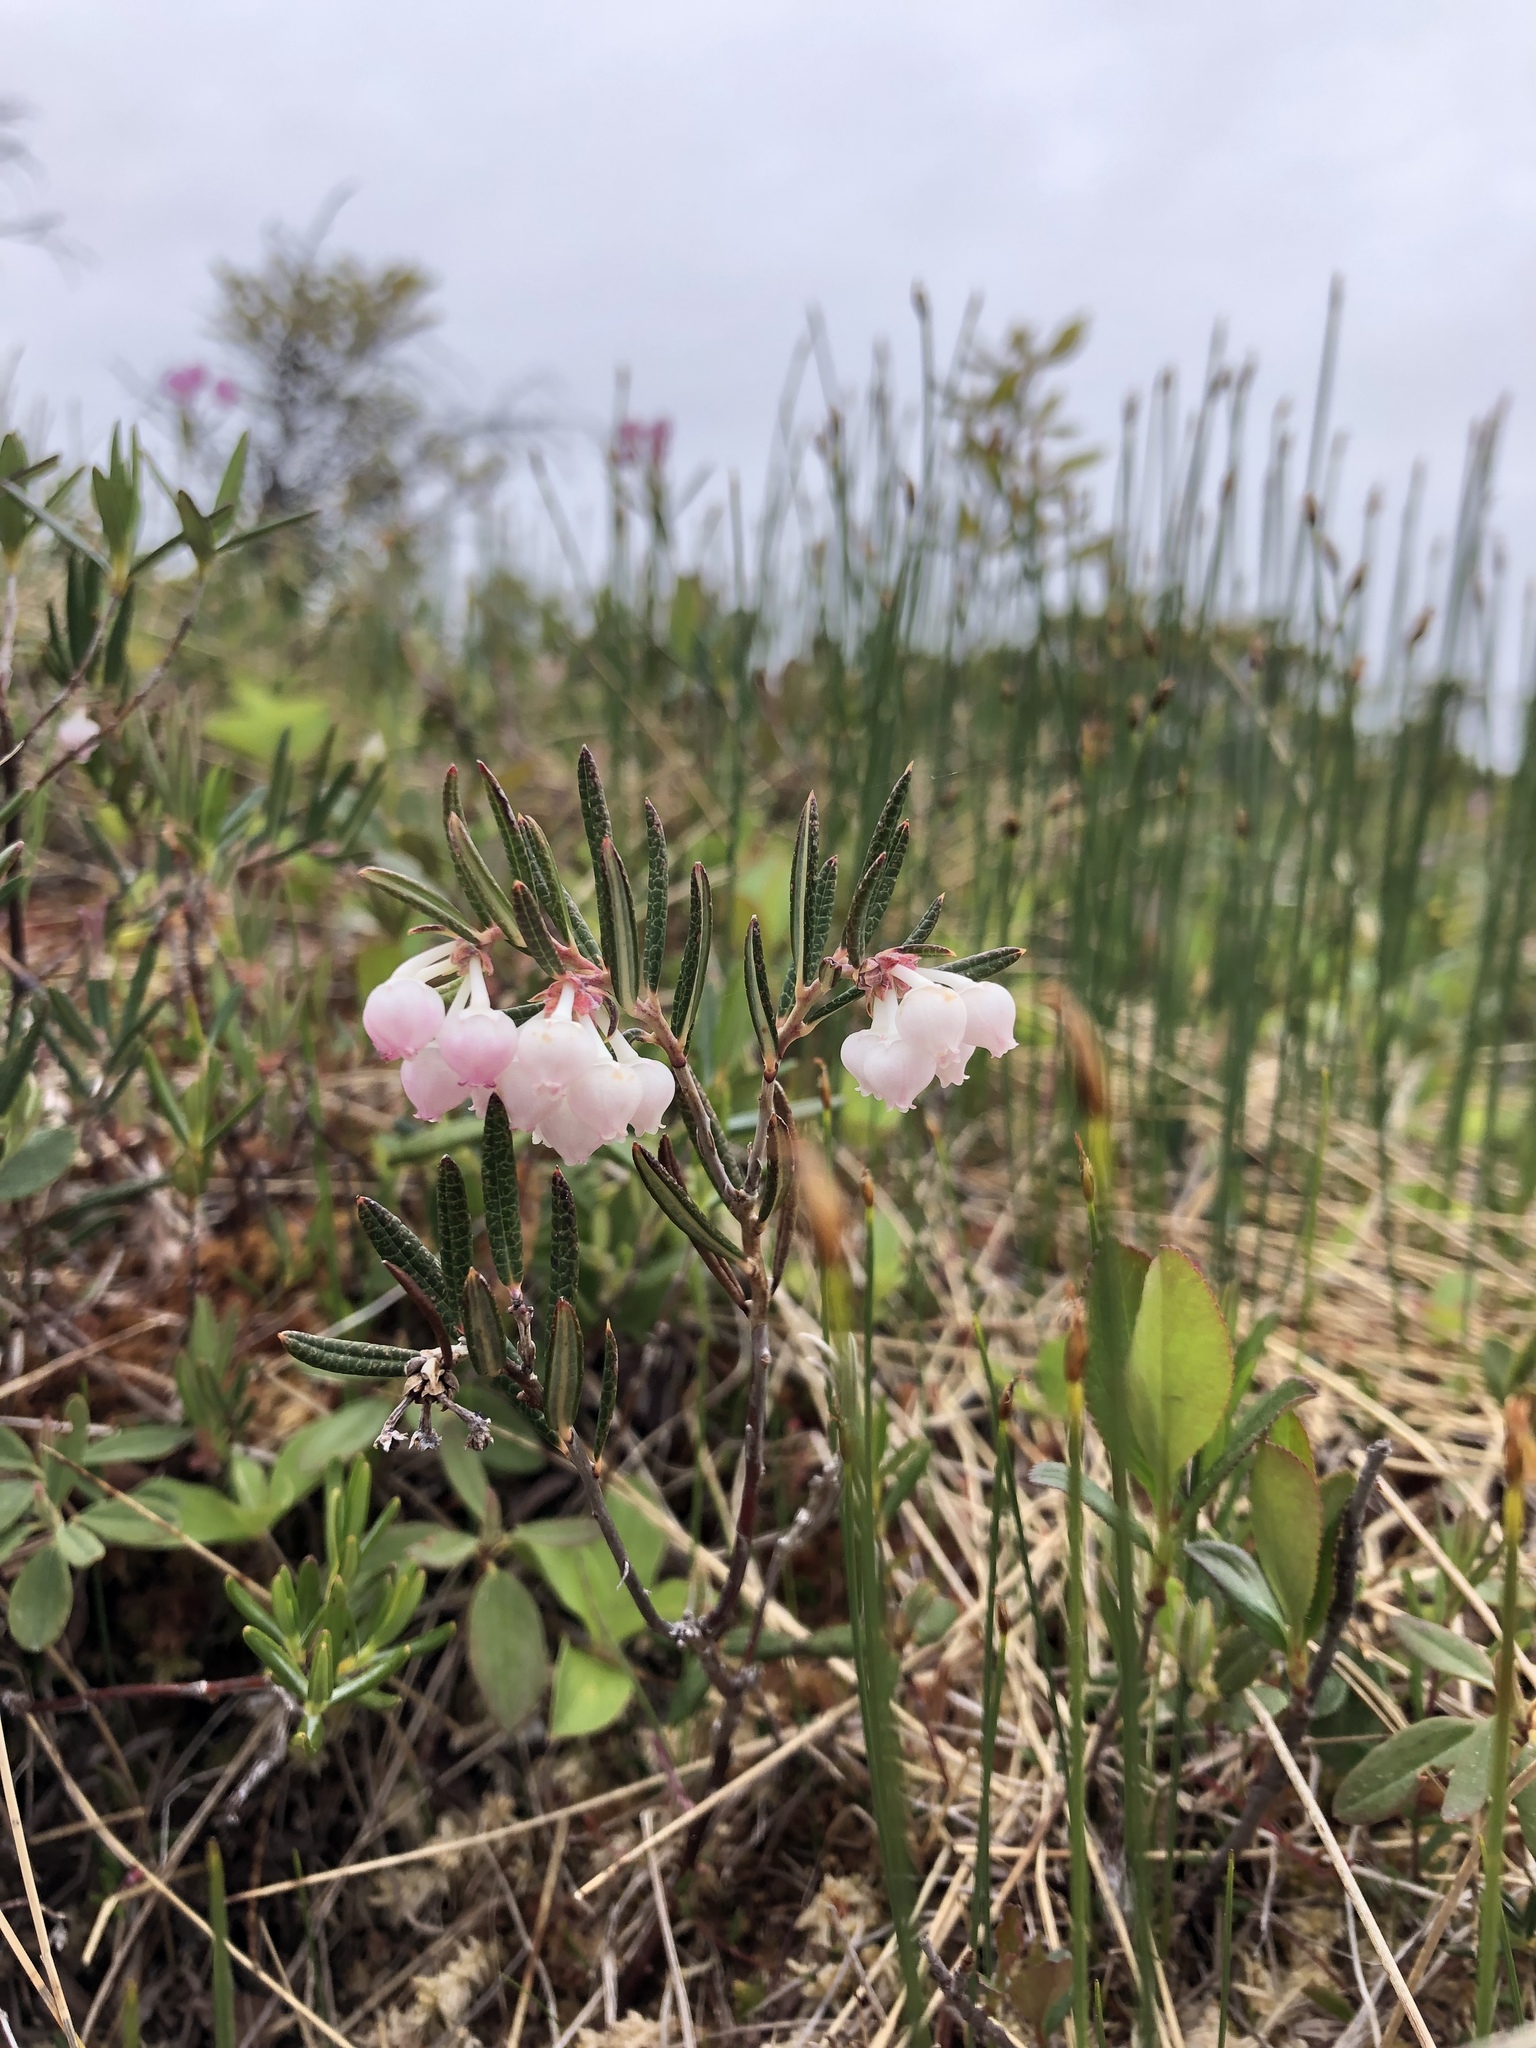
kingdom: Plantae
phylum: Tracheophyta
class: Magnoliopsida
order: Ericales
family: Ericaceae
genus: Andromeda
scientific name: Andromeda polifolia
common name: Bog-rosemary
